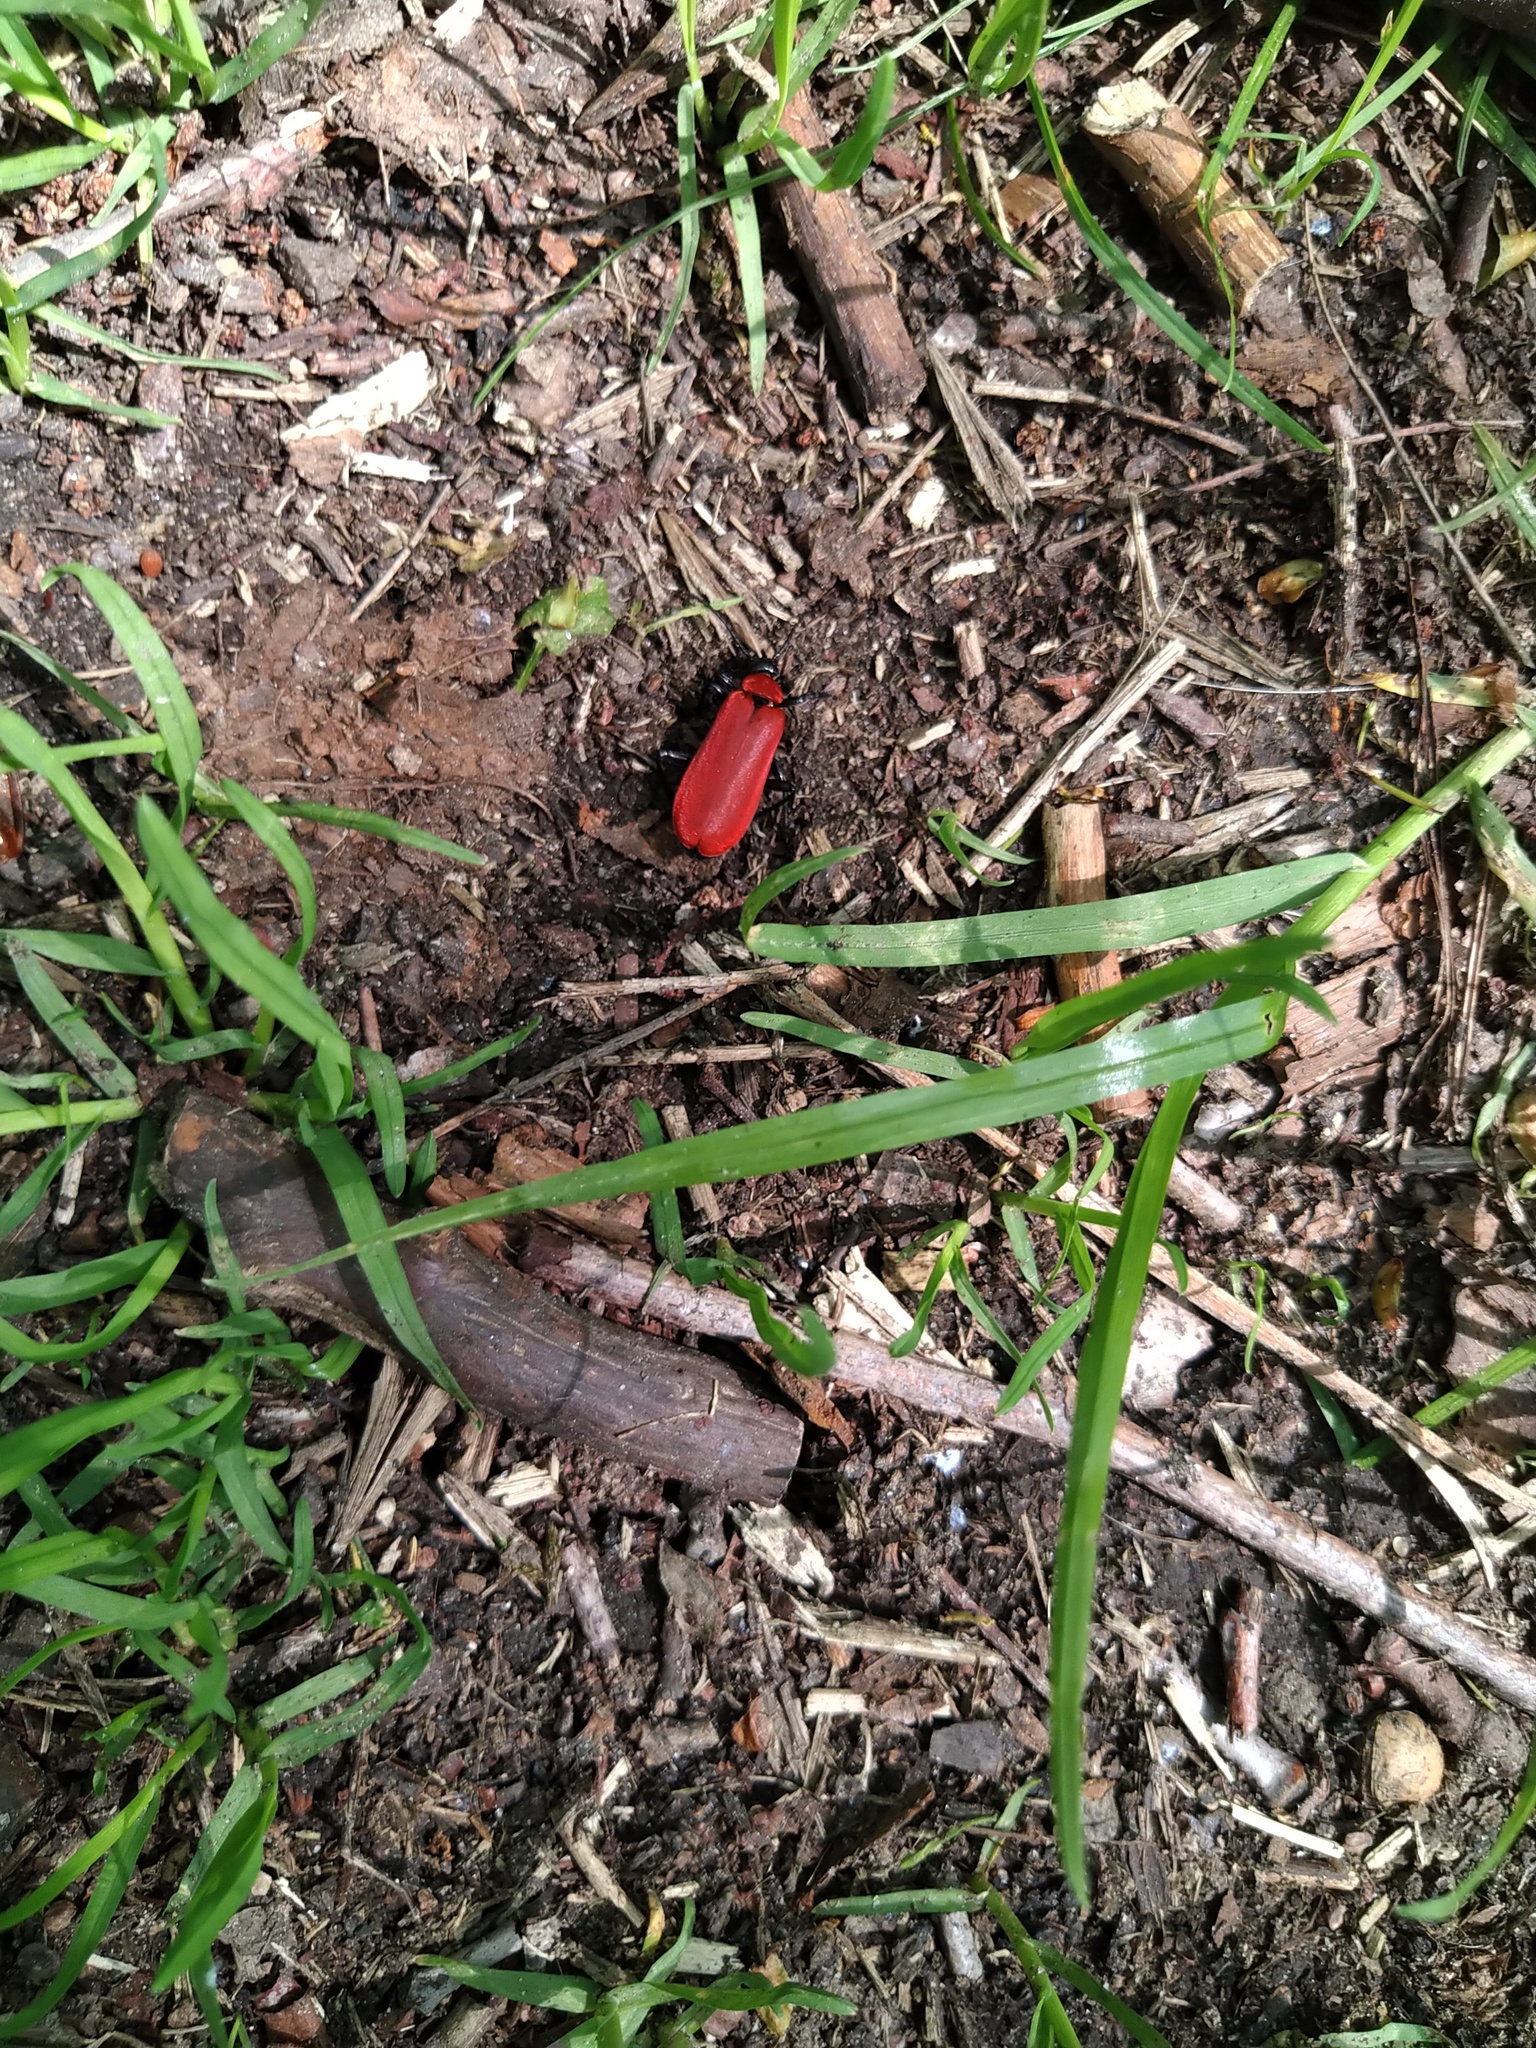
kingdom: Animalia
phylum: Arthropoda
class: Insecta
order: Coleoptera
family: Pyrochroidae
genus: Pyrochroa
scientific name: Pyrochroa coccinea
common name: Black-headed cardinal beetle
